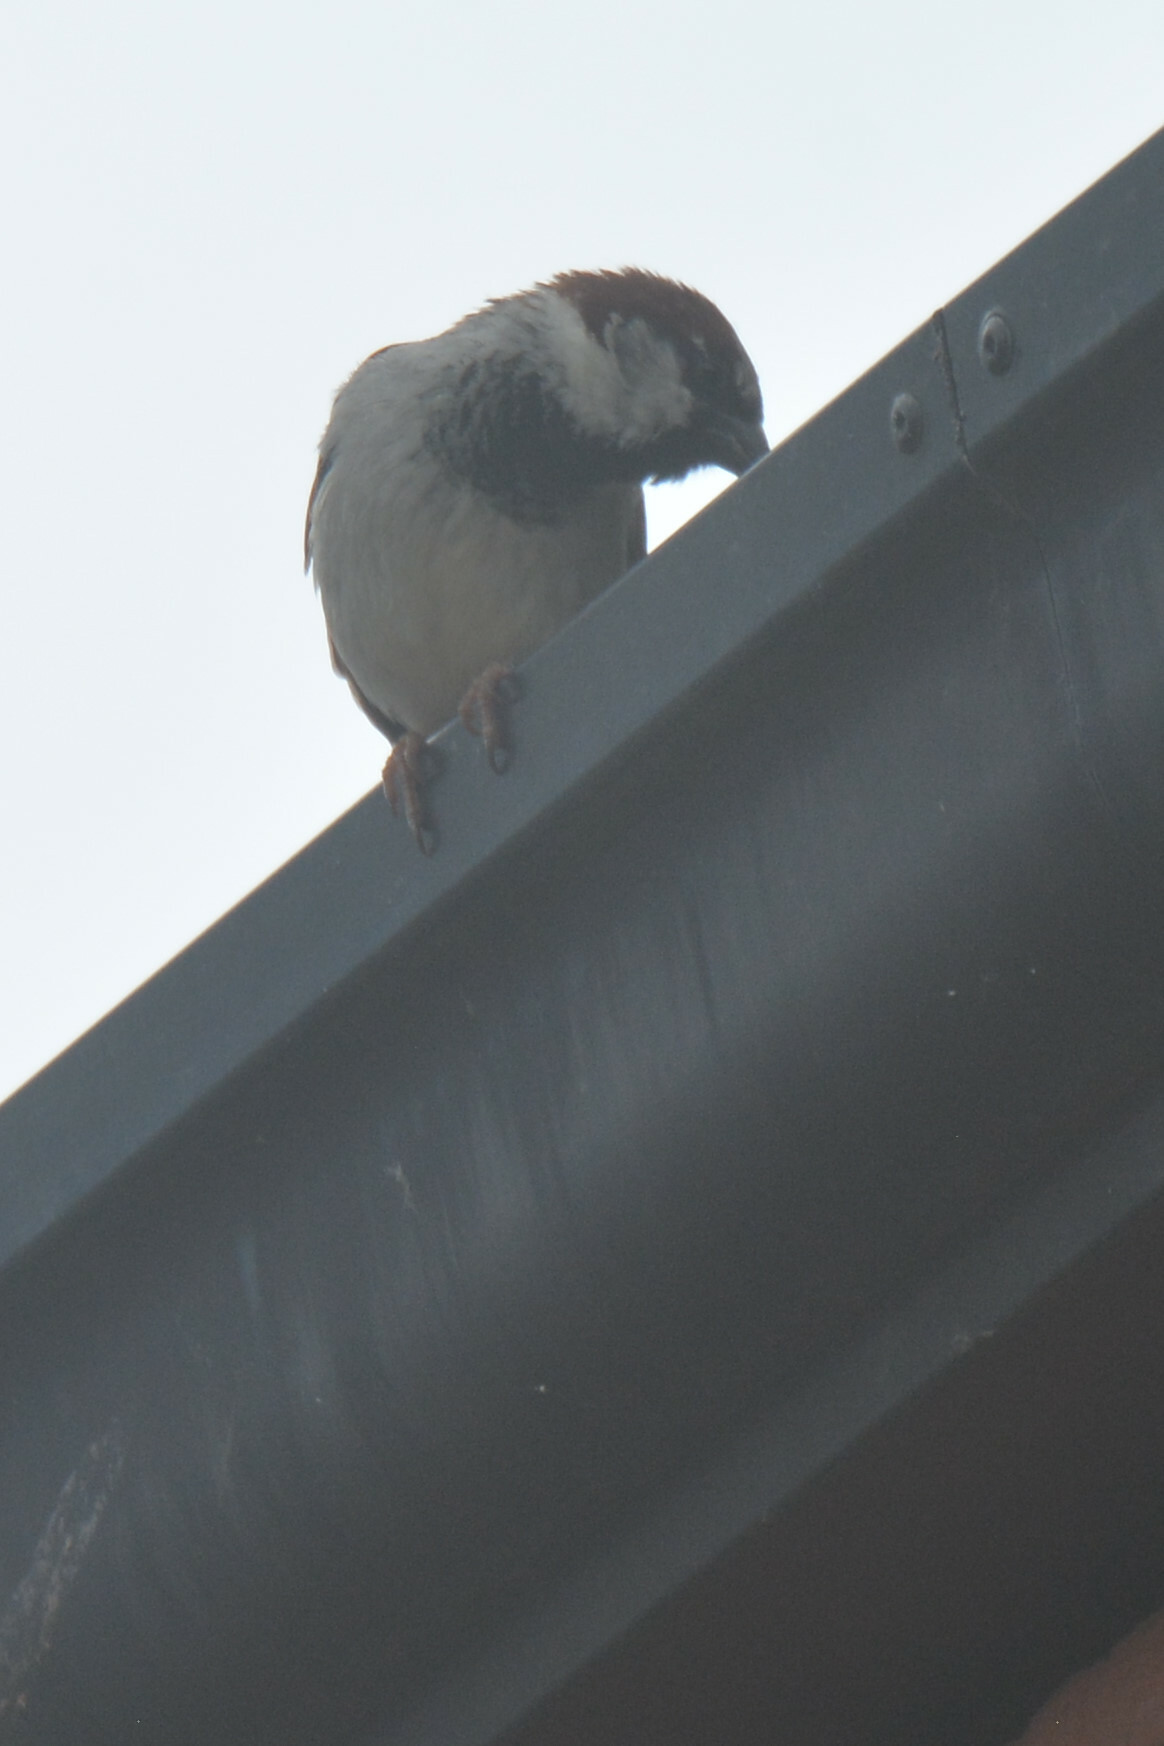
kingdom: Animalia
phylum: Chordata
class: Aves
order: Passeriformes
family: Passeridae
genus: Passer
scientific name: Passer domesticus
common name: House sparrow
